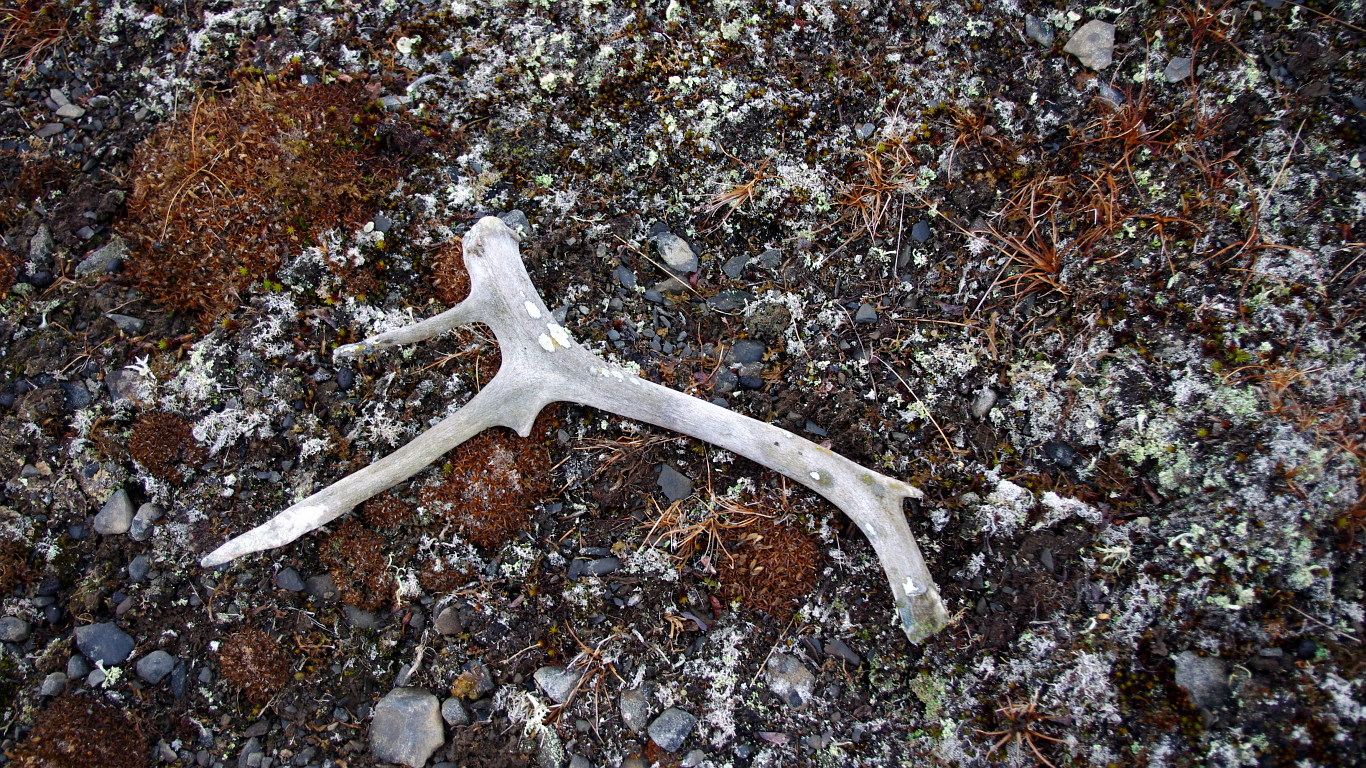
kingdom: Animalia
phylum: Chordata
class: Mammalia
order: Artiodactyla
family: Cervidae
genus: Rangifer
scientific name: Rangifer tarandus
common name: Reindeer
